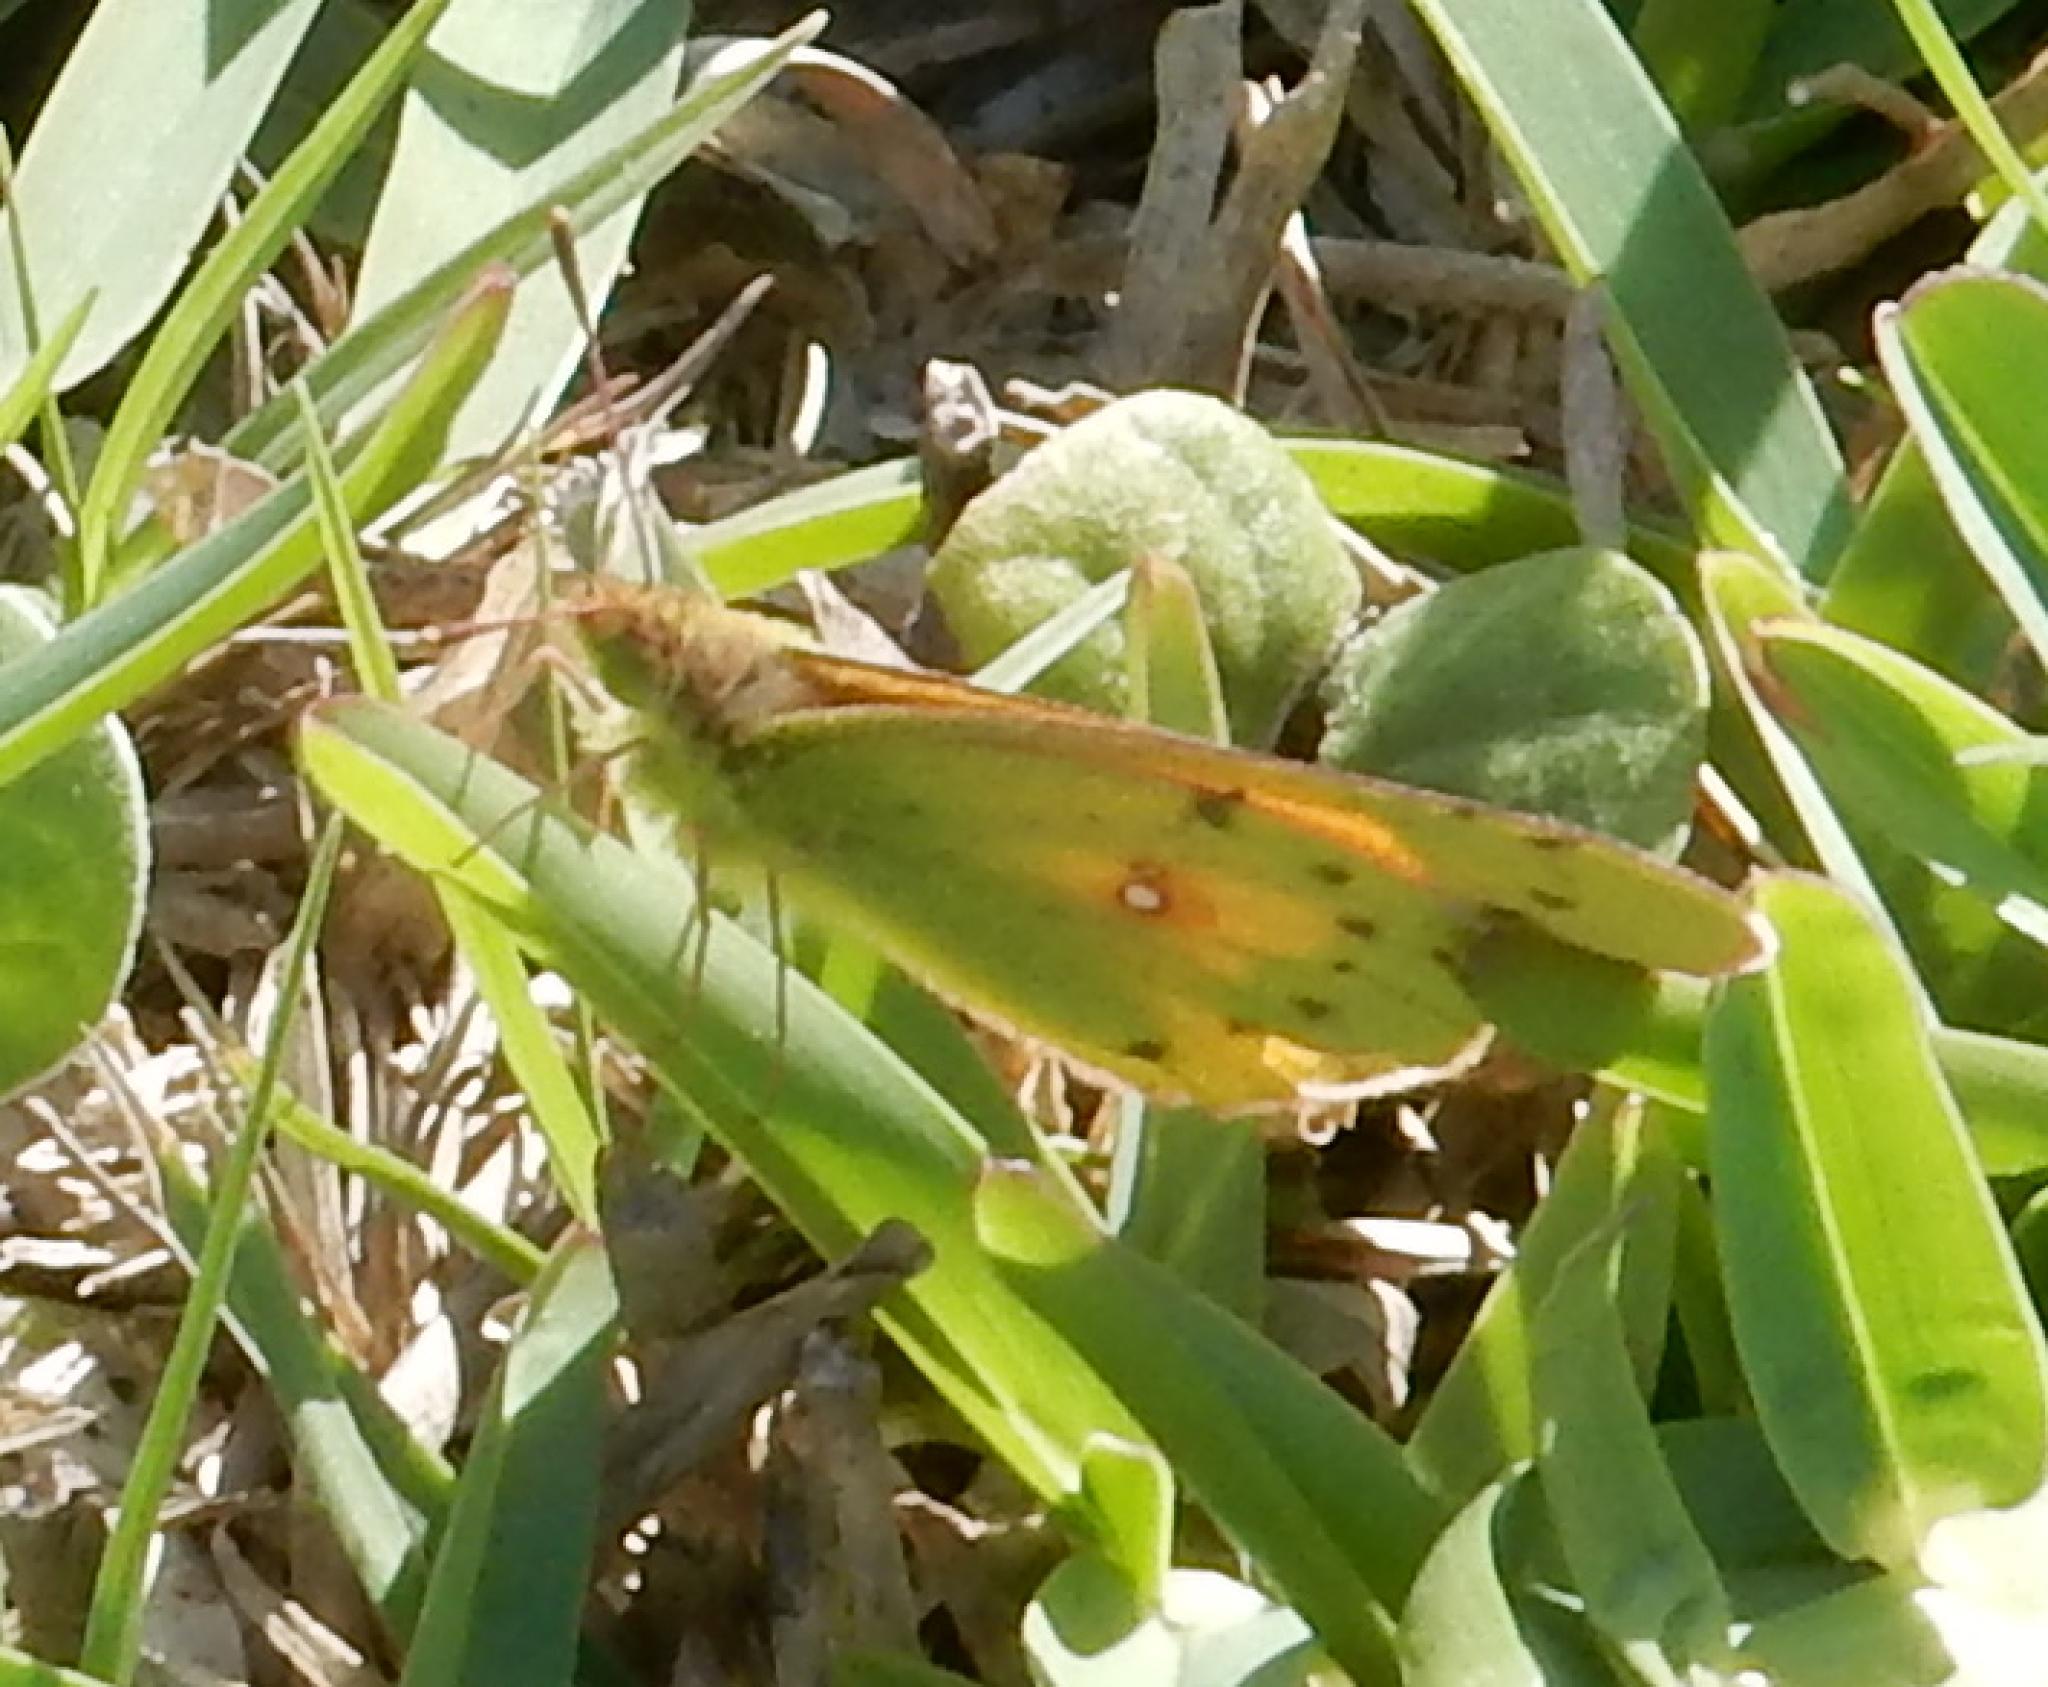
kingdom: Animalia
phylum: Arthropoda
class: Insecta
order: Lepidoptera
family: Pieridae
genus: Colias
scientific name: Colias electo
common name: African clouded yellow
